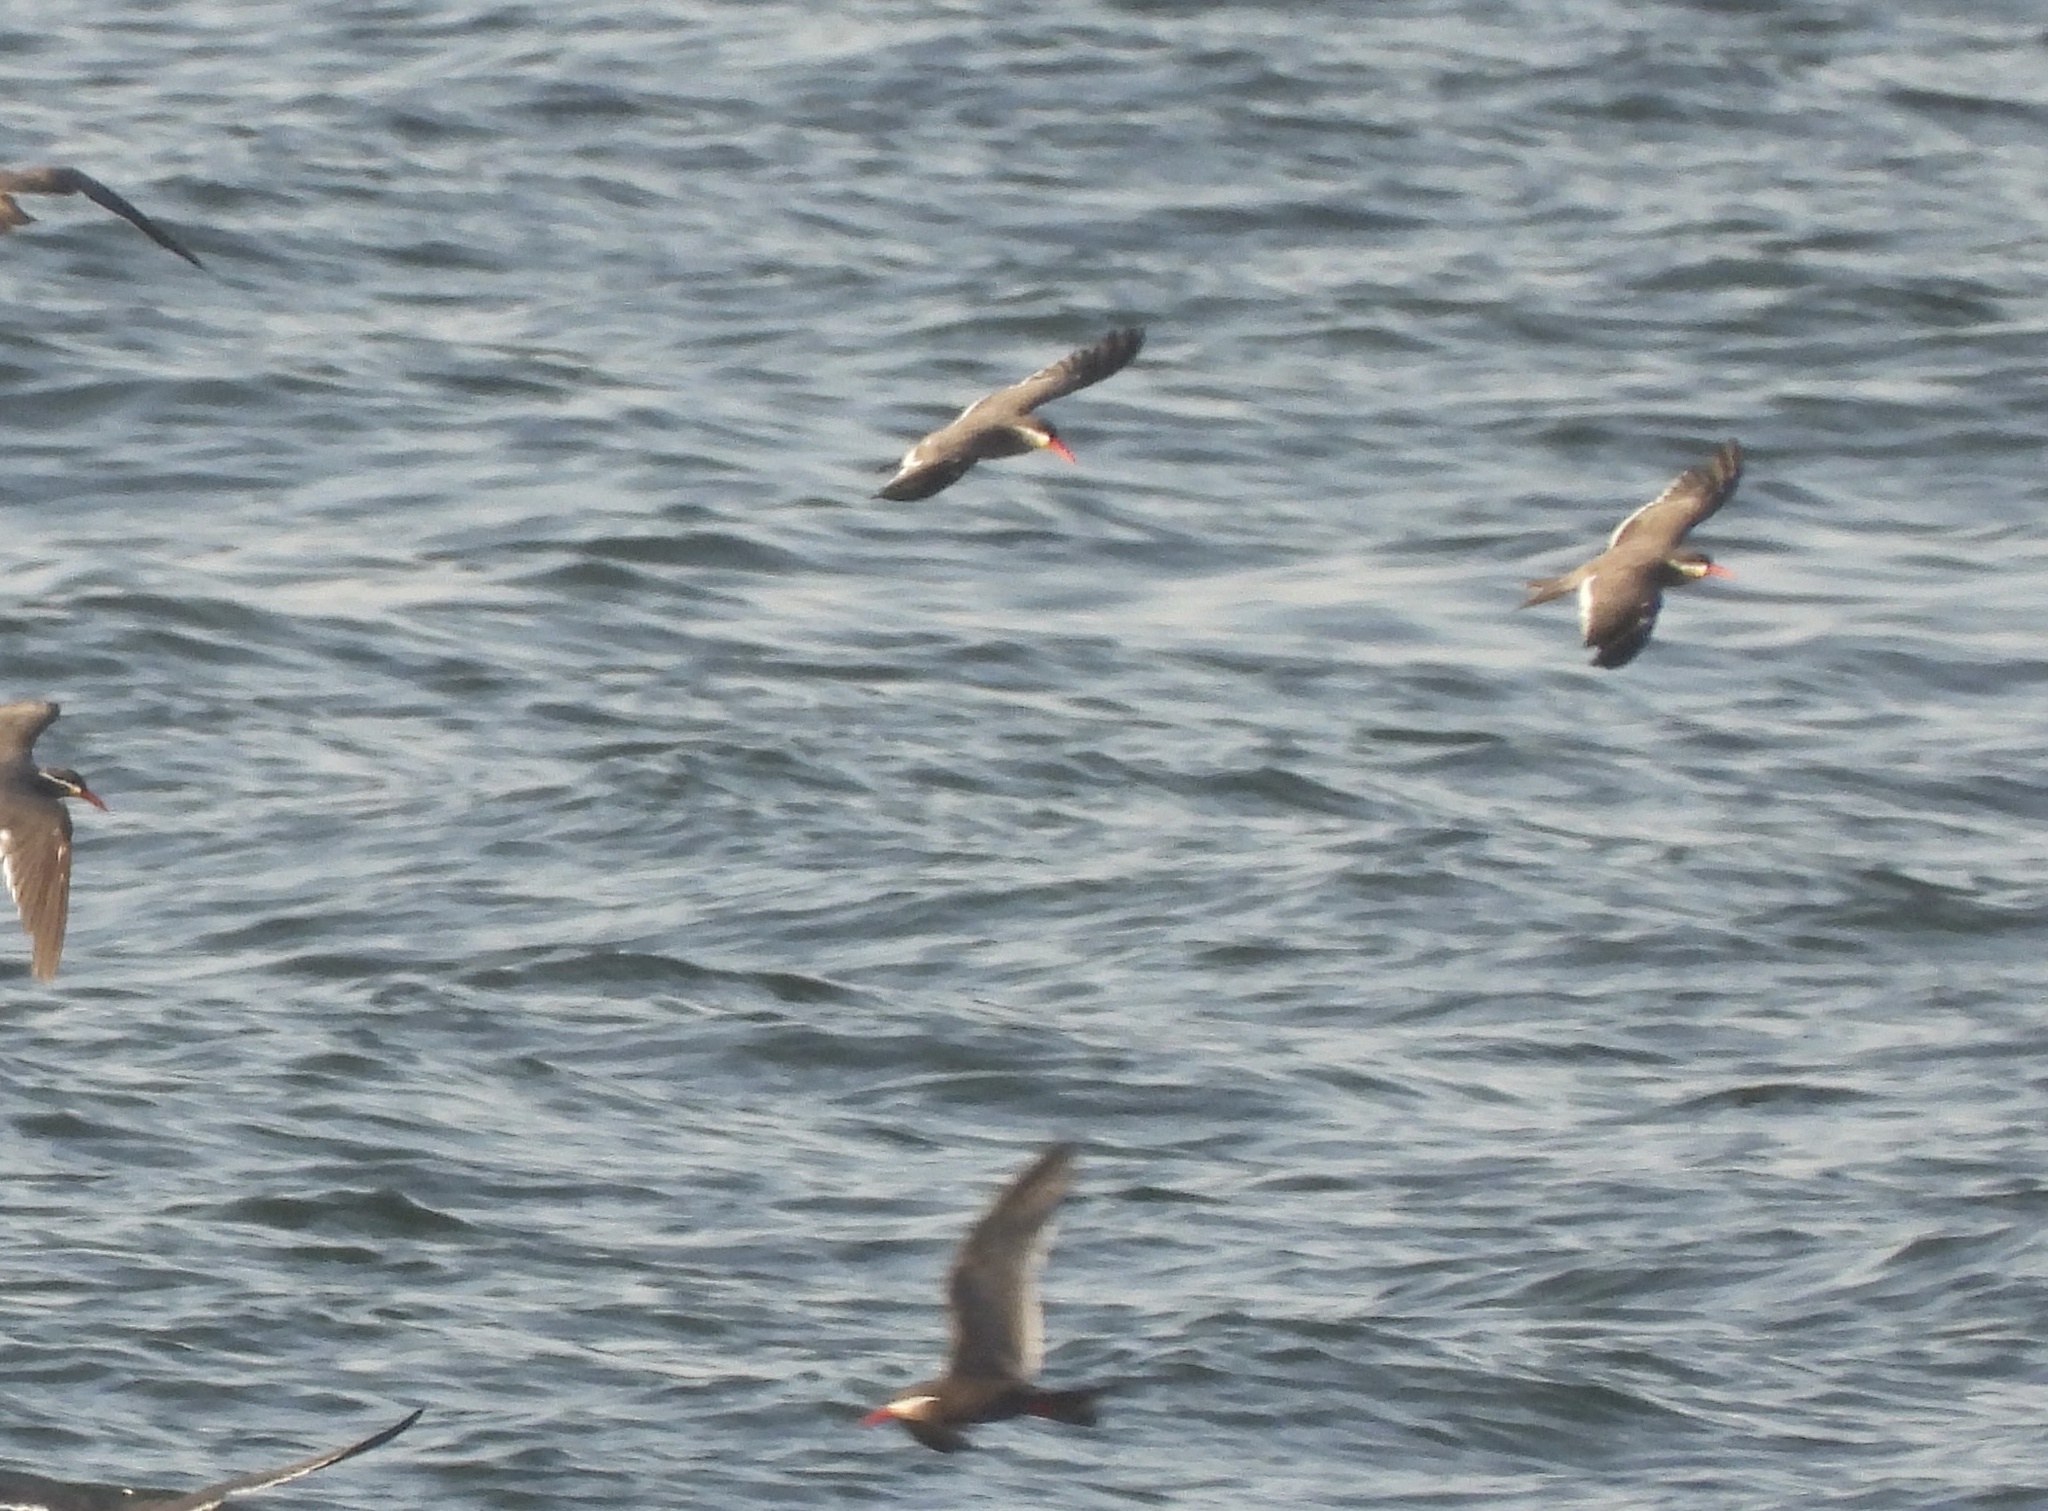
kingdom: Animalia
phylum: Chordata
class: Aves
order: Charadriiformes
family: Laridae
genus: Larosterna
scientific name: Larosterna inca
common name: Inca tern
